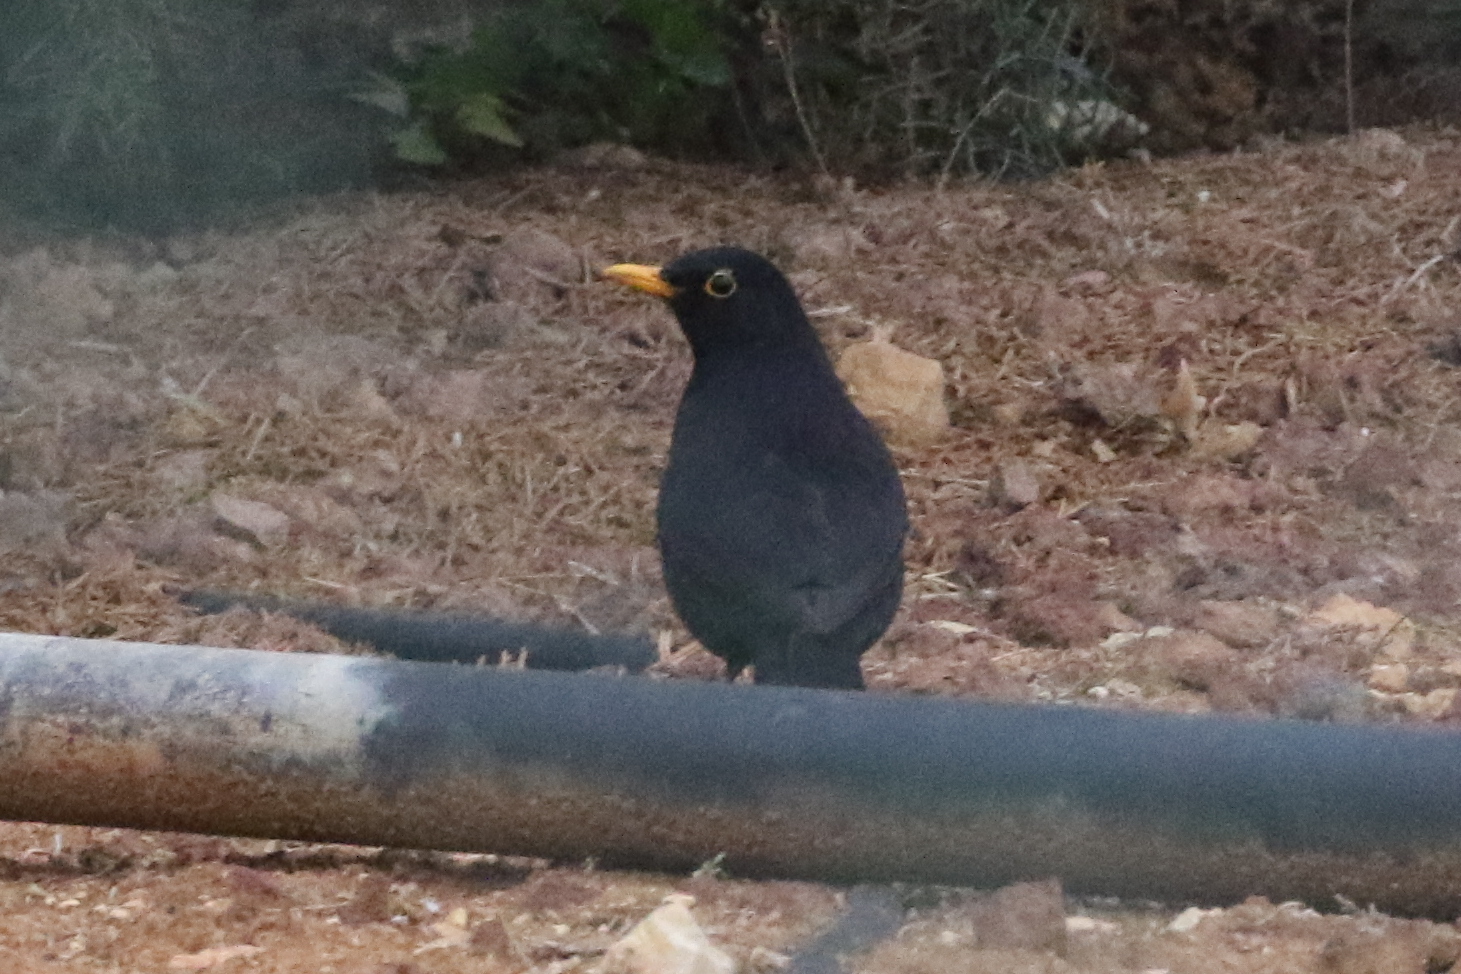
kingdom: Animalia
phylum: Chordata
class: Aves
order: Passeriformes
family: Turdidae
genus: Turdus
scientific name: Turdus merula
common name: Common blackbird
